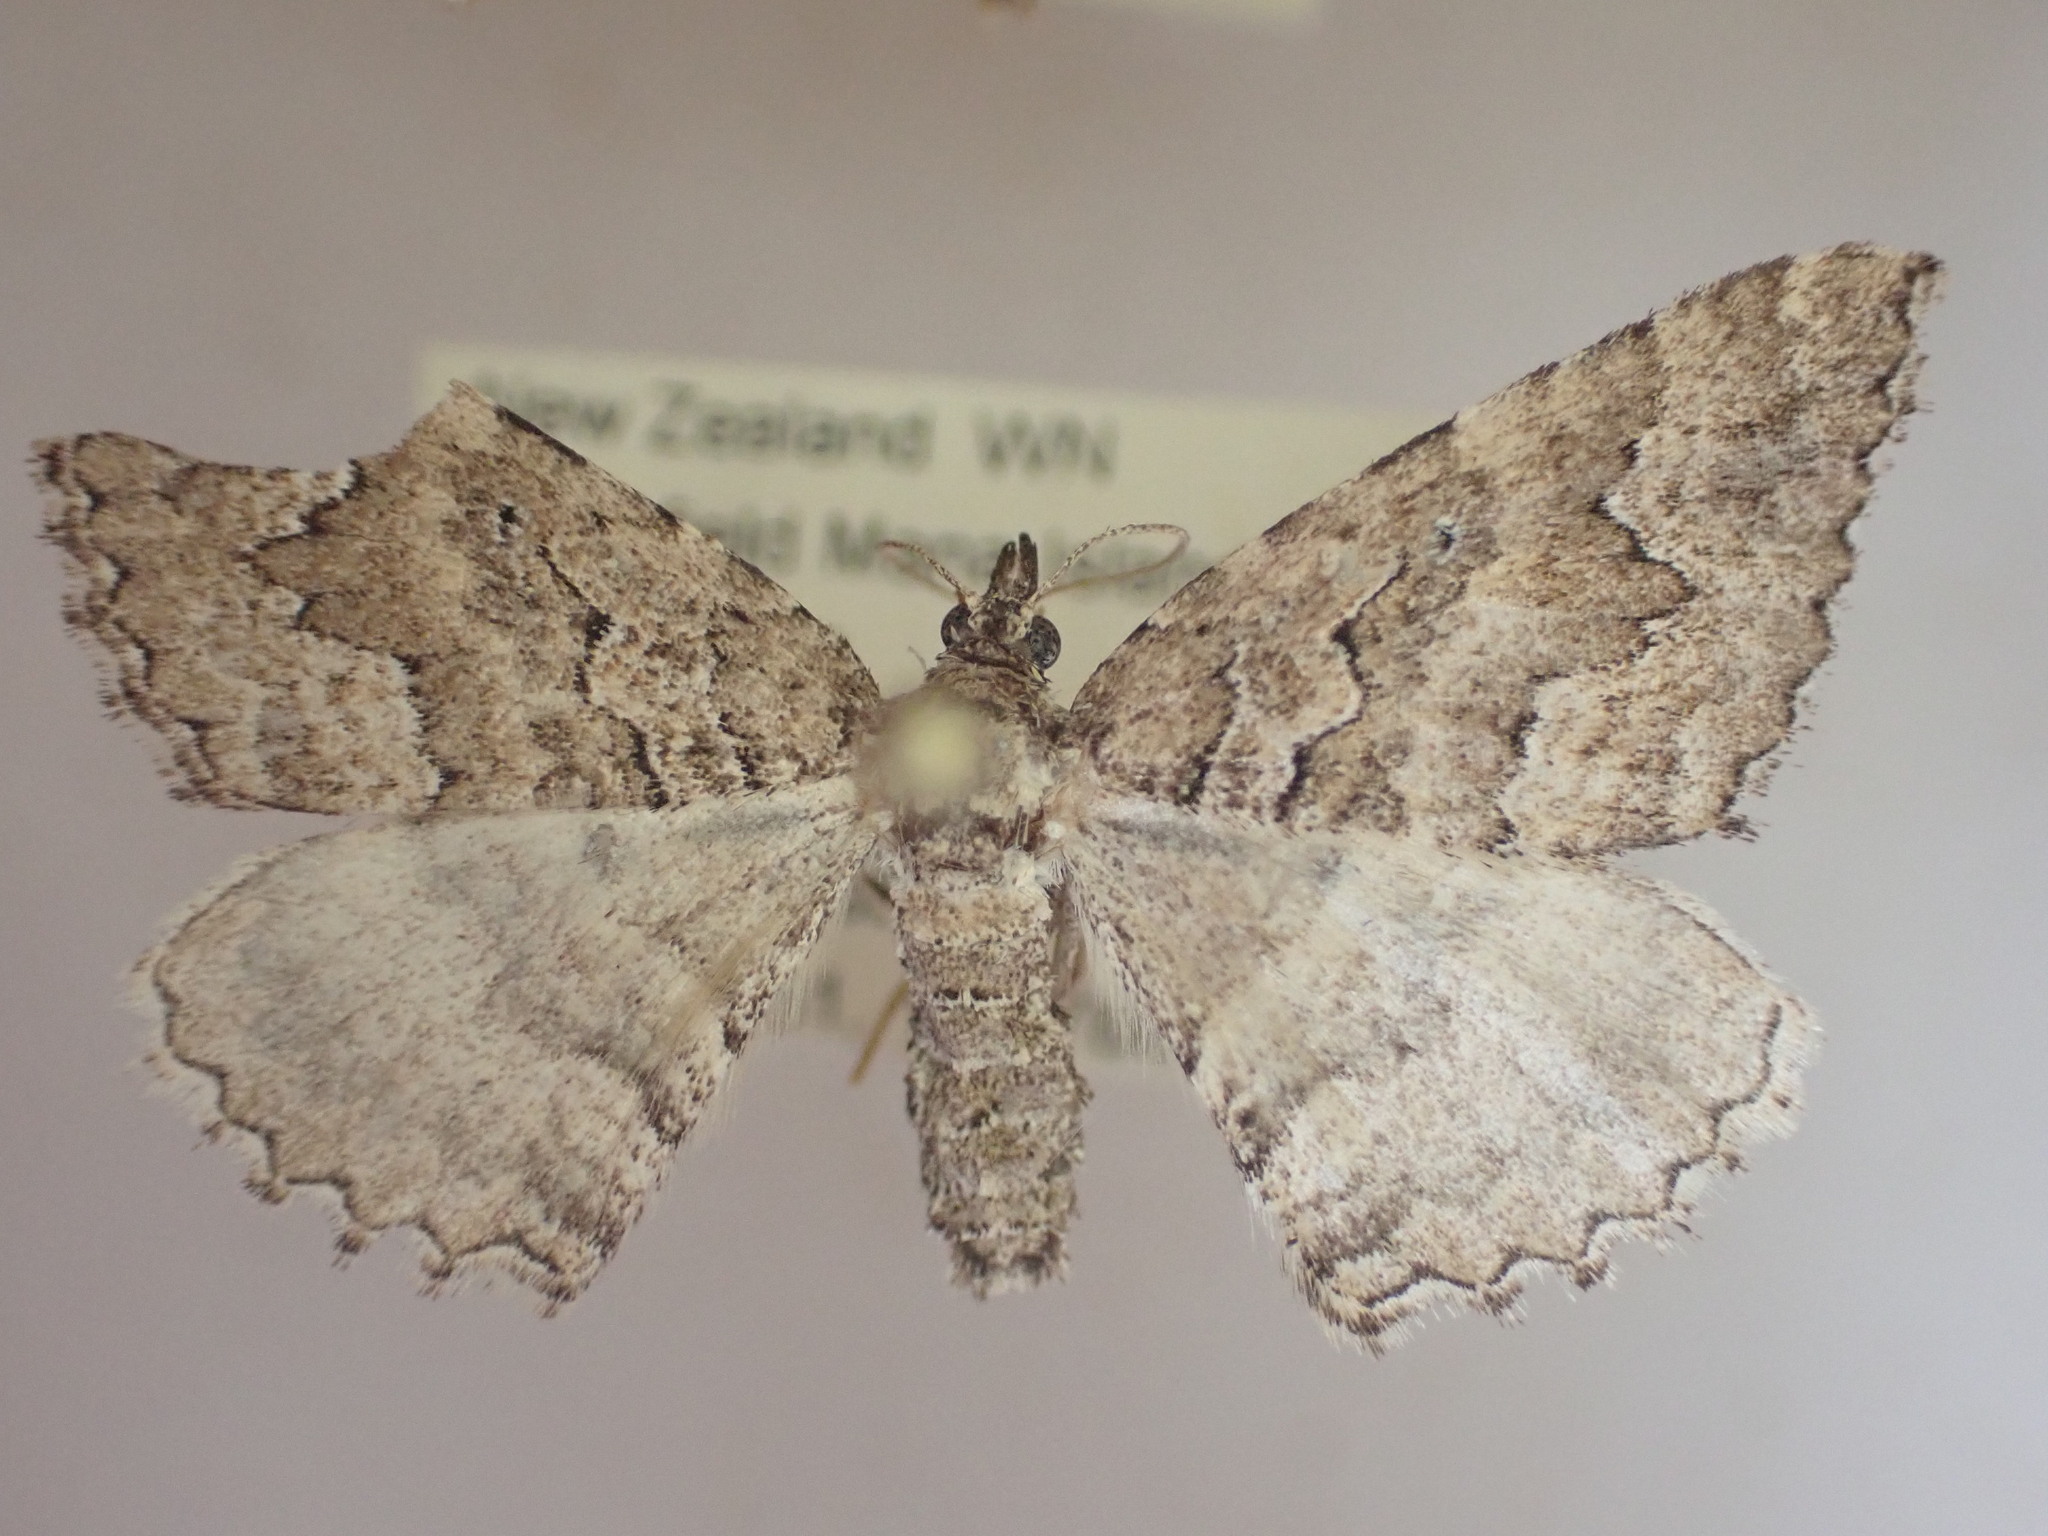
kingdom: Animalia
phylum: Arthropoda
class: Insecta
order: Lepidoptera
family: Geometridae
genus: Austrocidaria
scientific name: Austrocidaria lithurga
